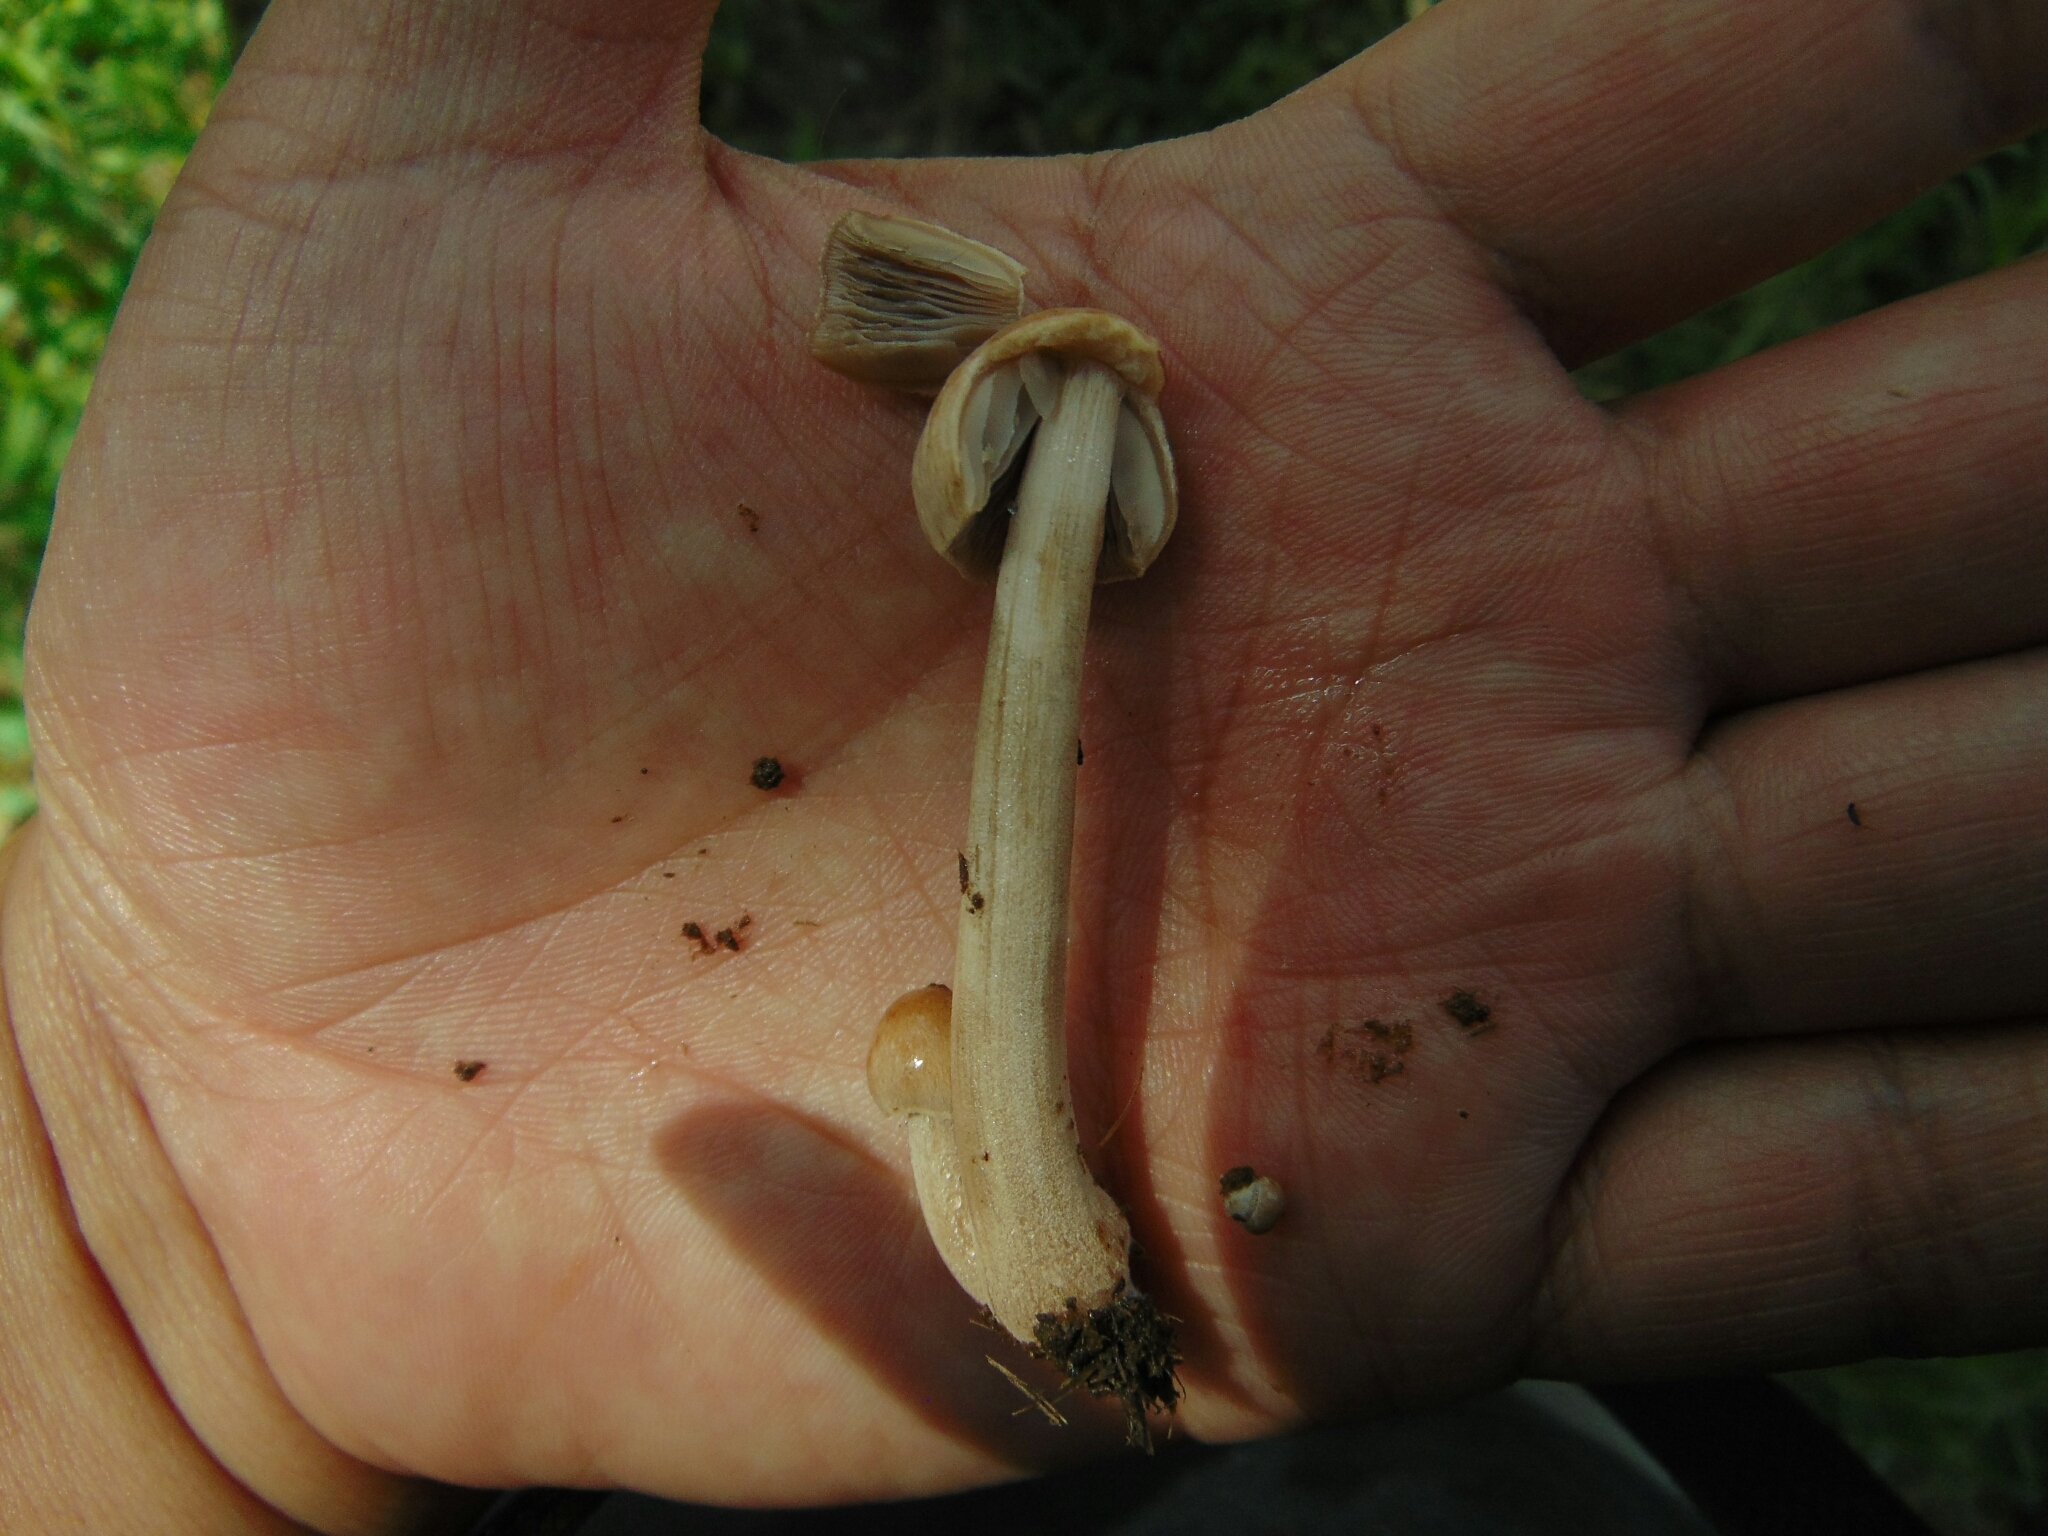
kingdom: Fungi
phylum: Basidiomycota
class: Agaricomycetes
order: Agaricales
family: Bolbitiaceae
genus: Panaeolus
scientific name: Panaeolus antillarum
